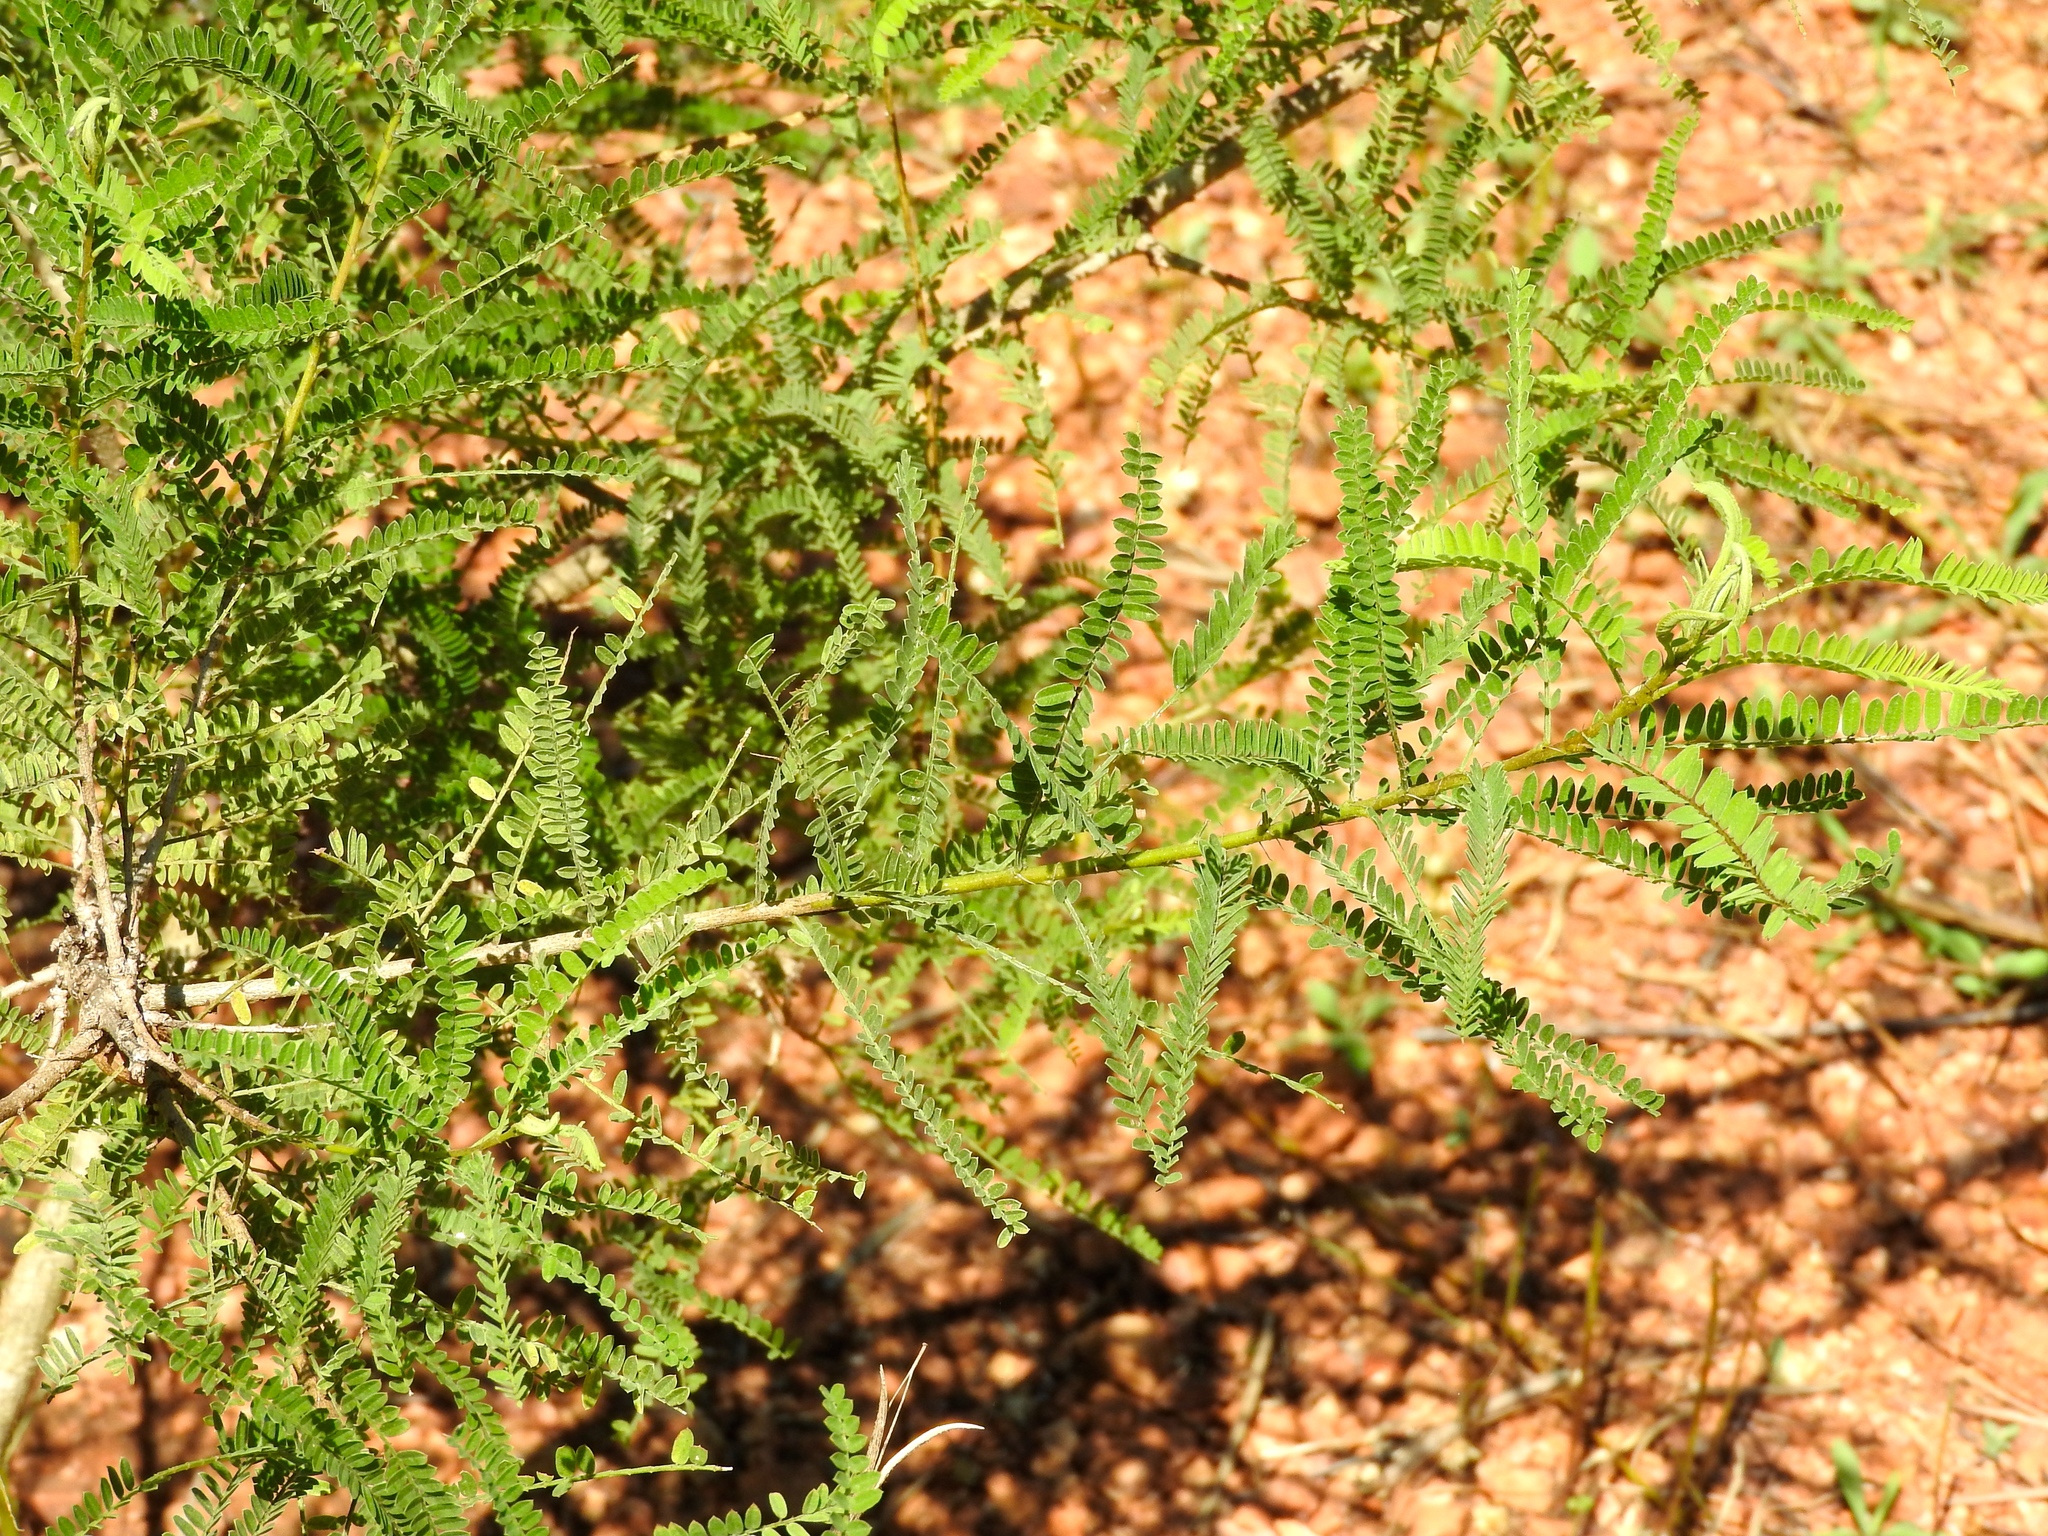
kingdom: Plantae
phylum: Tracheophyta
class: Magnoliopsida
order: Fabales
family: Fabaceae
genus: Eysenhardtia
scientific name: Eysenhardtia polystachya
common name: Kidneywood
